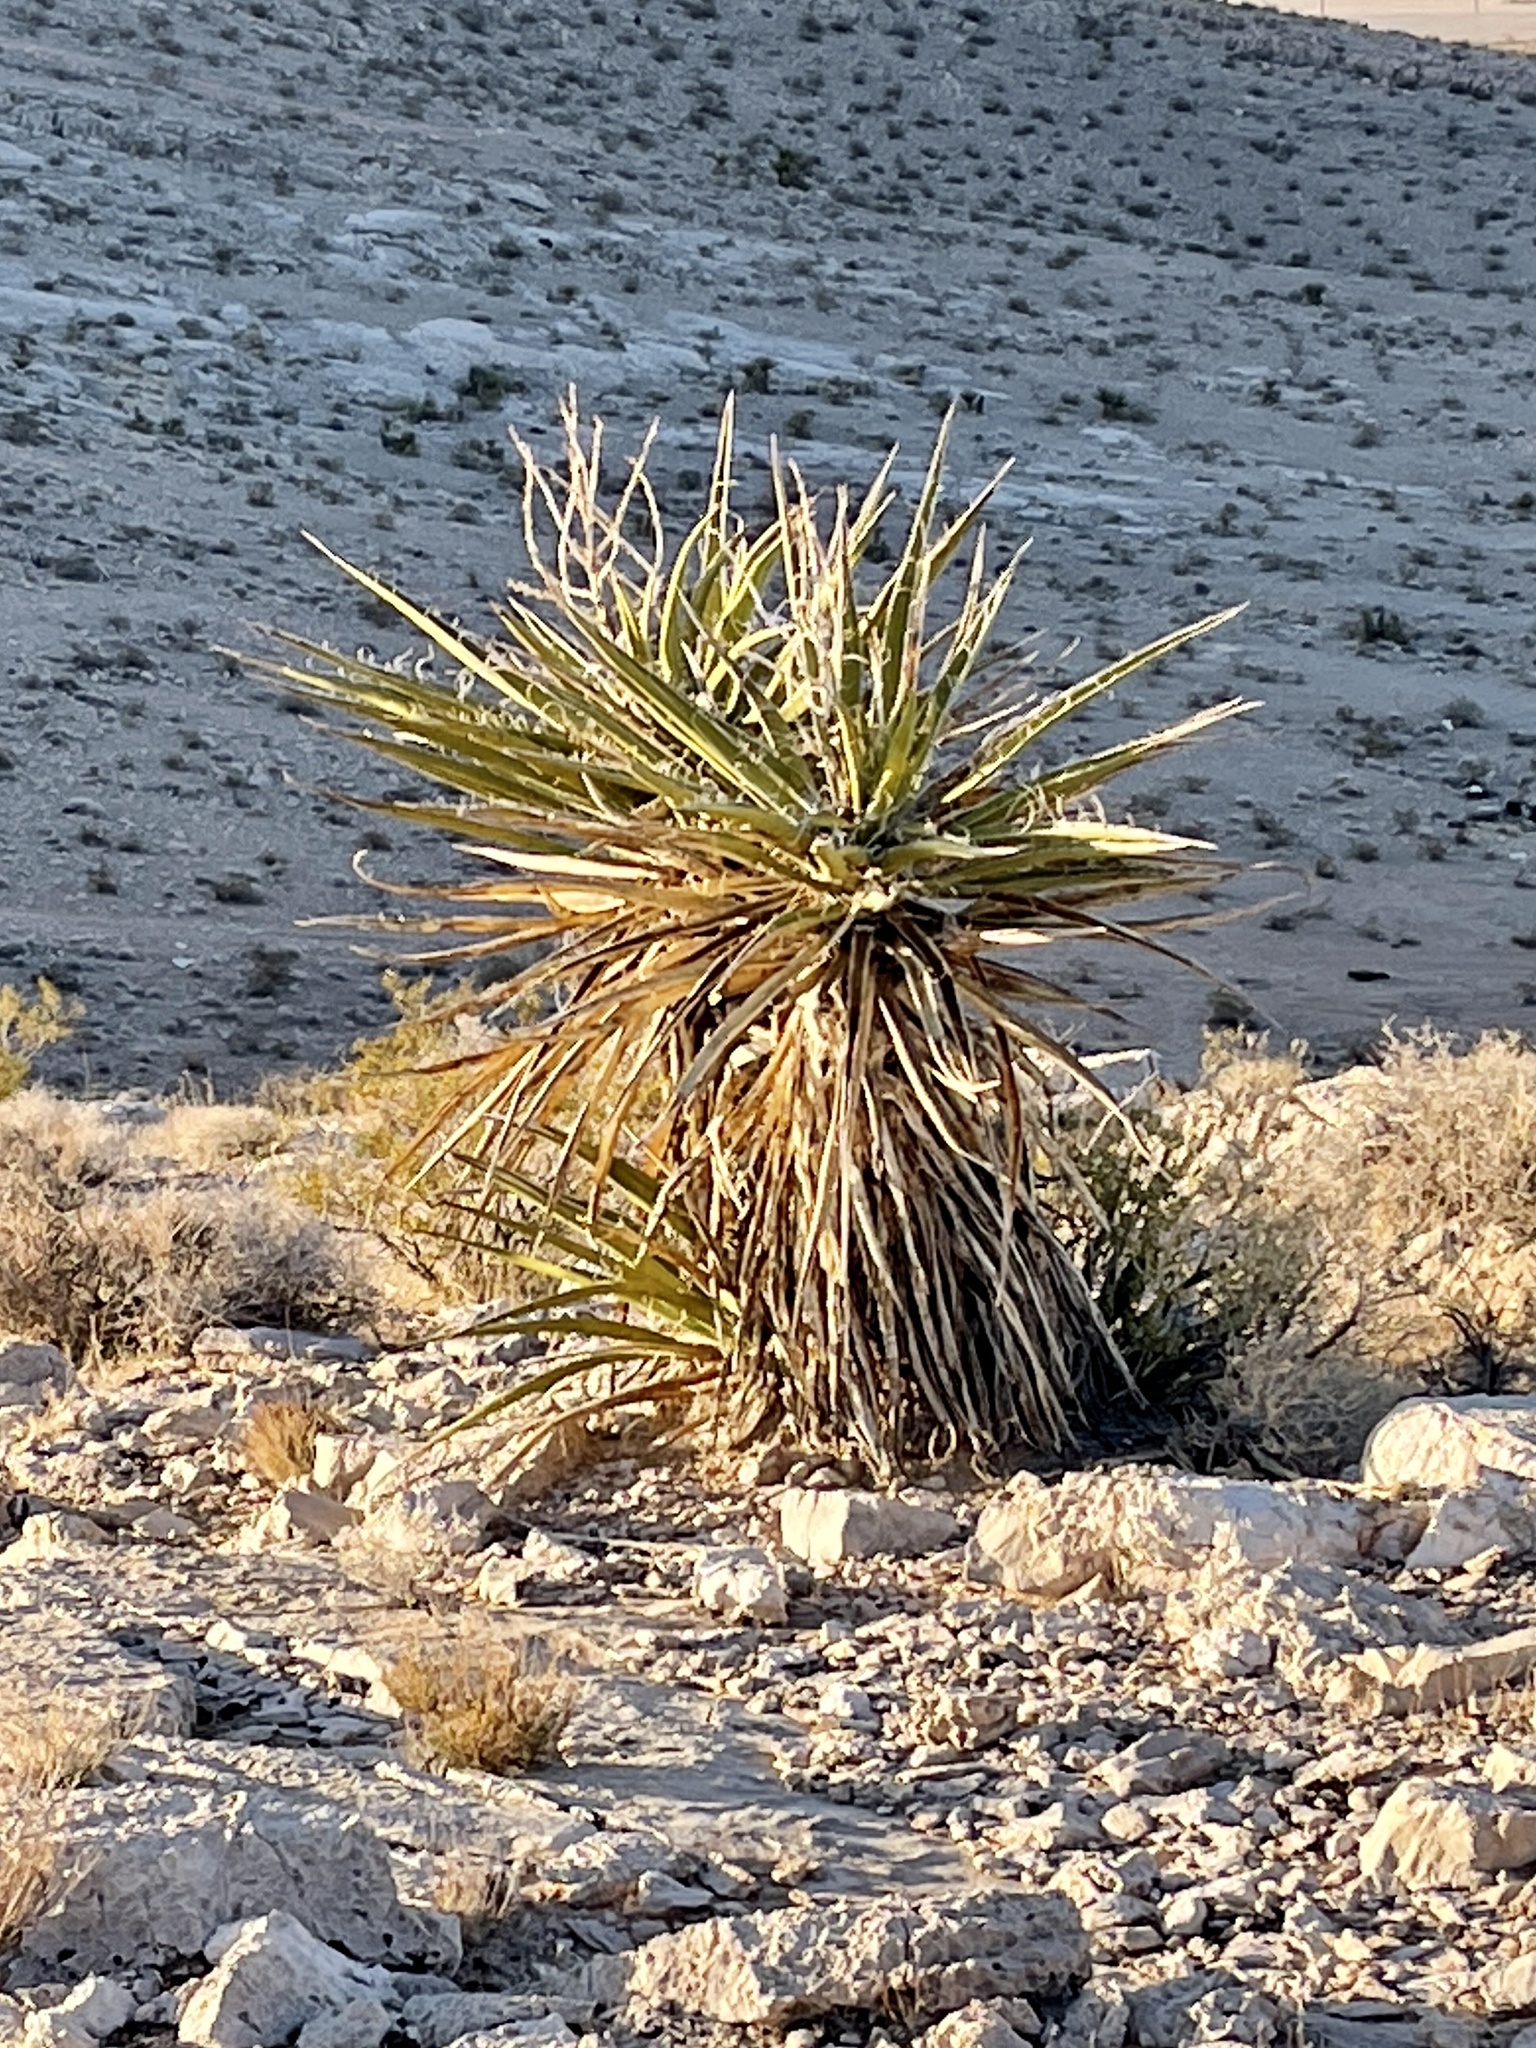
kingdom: Plantae
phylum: Tracheophyta
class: Liliopsida
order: Asparagales
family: Asparagaceae
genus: Yucca
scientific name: Yucca schidigera
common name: Mojave yucca
